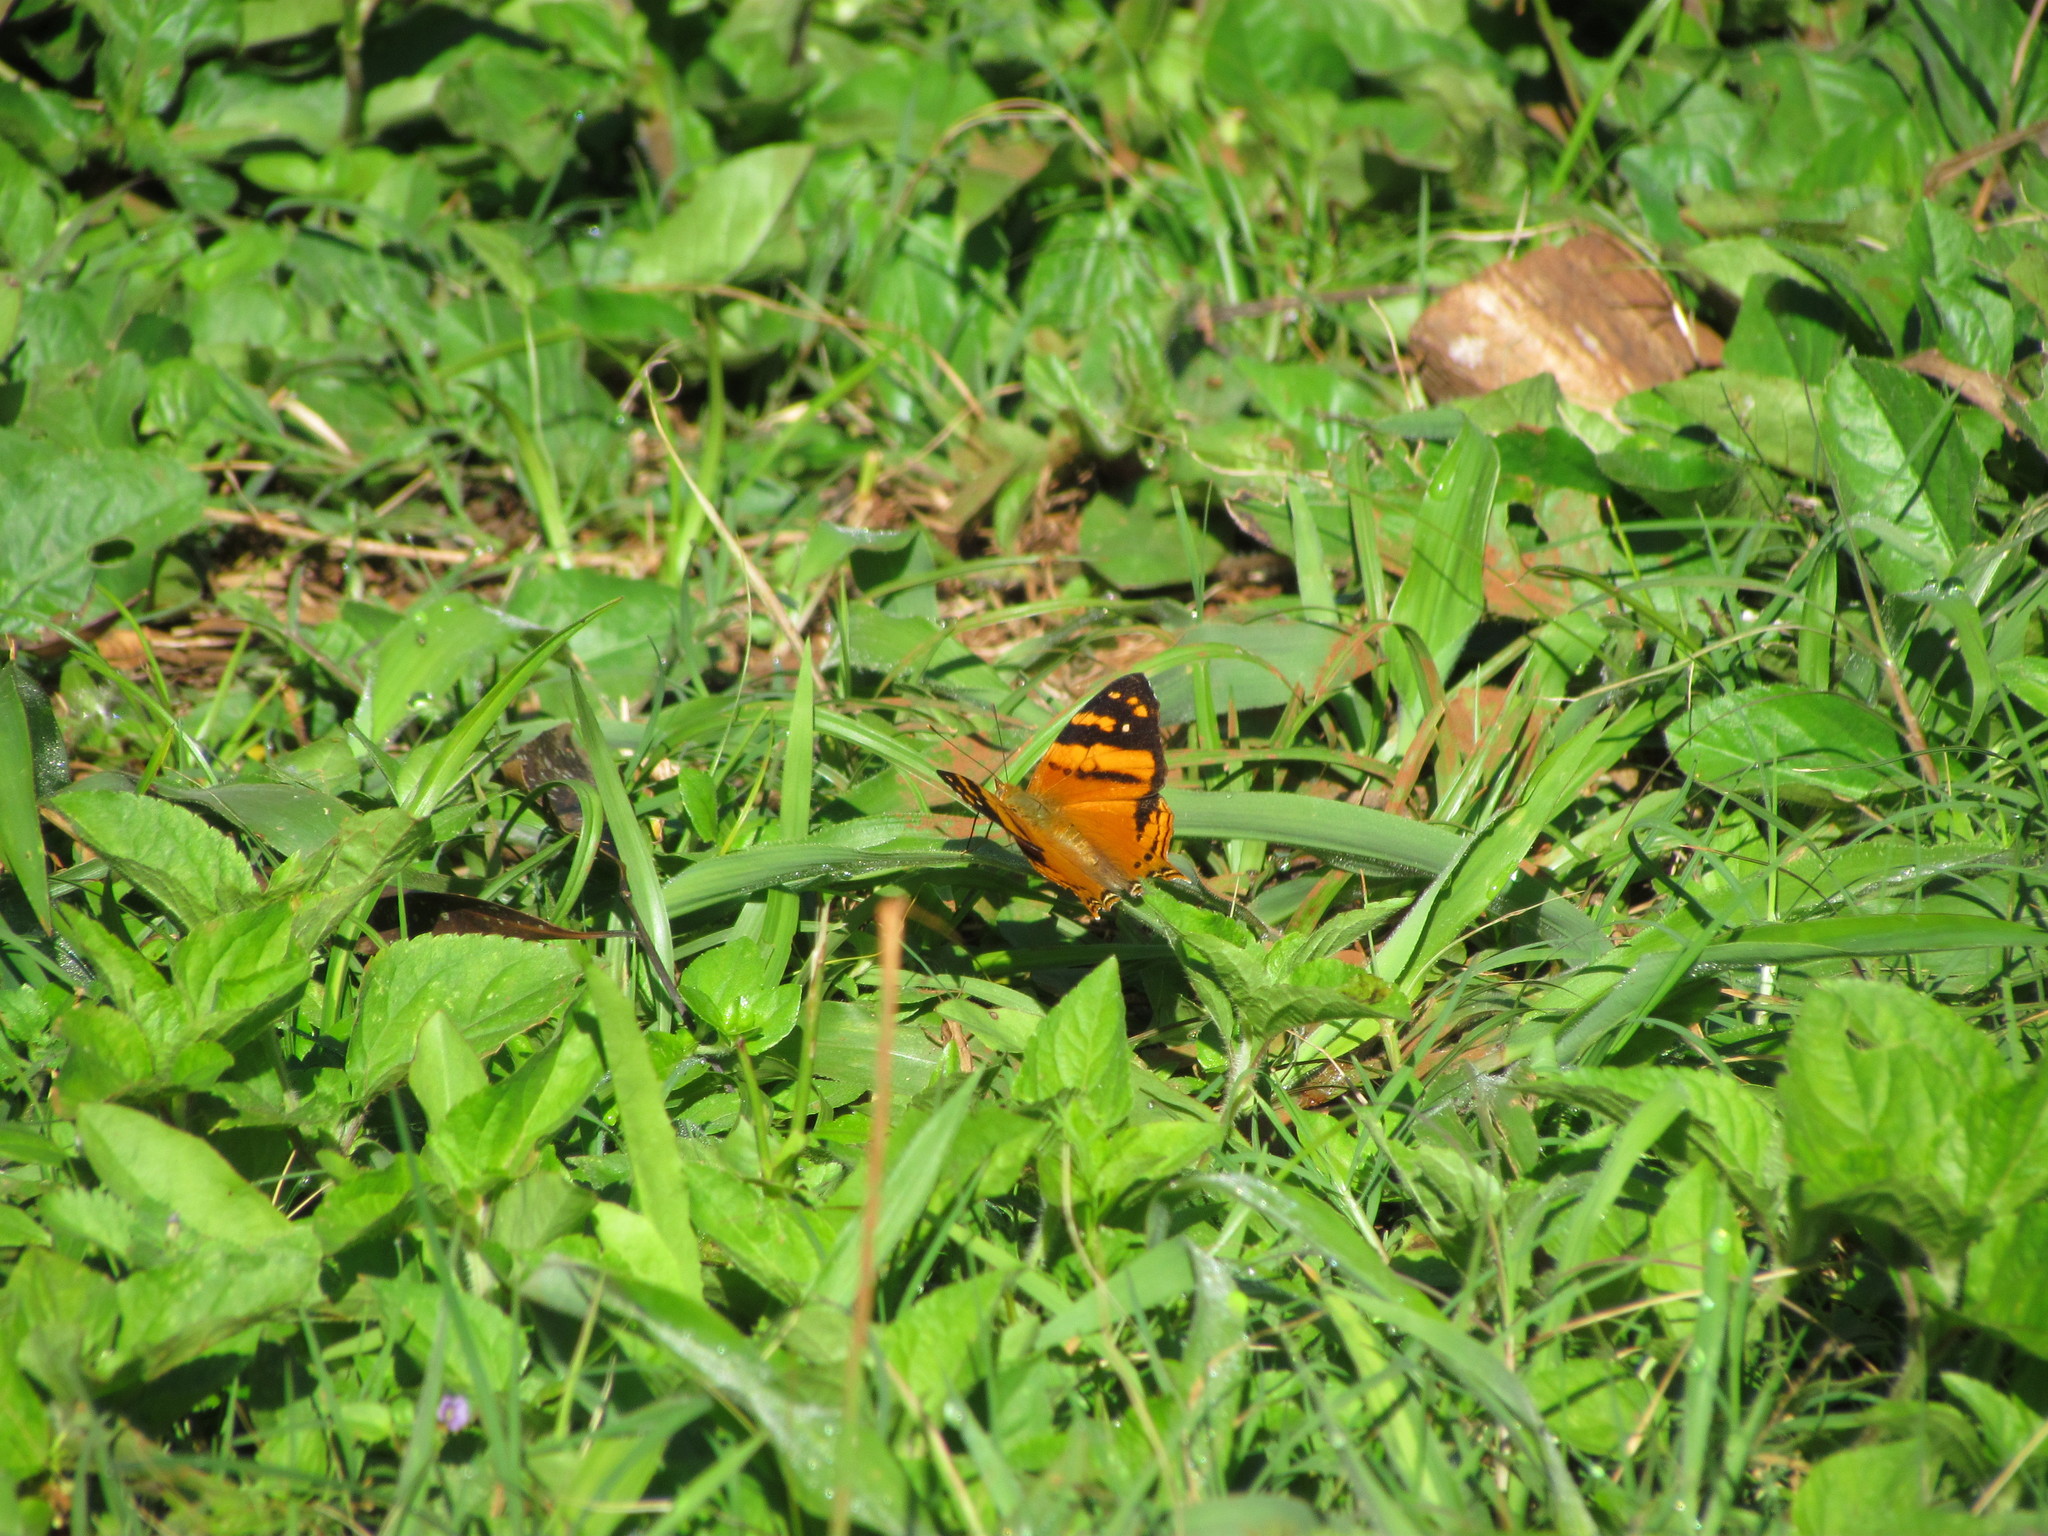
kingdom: Animalia
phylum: Arthropoda
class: Insecta
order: Lepidoptera
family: Nymphalidae
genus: Hypanartia
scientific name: Hypanartia lethe
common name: Orange mapwing
